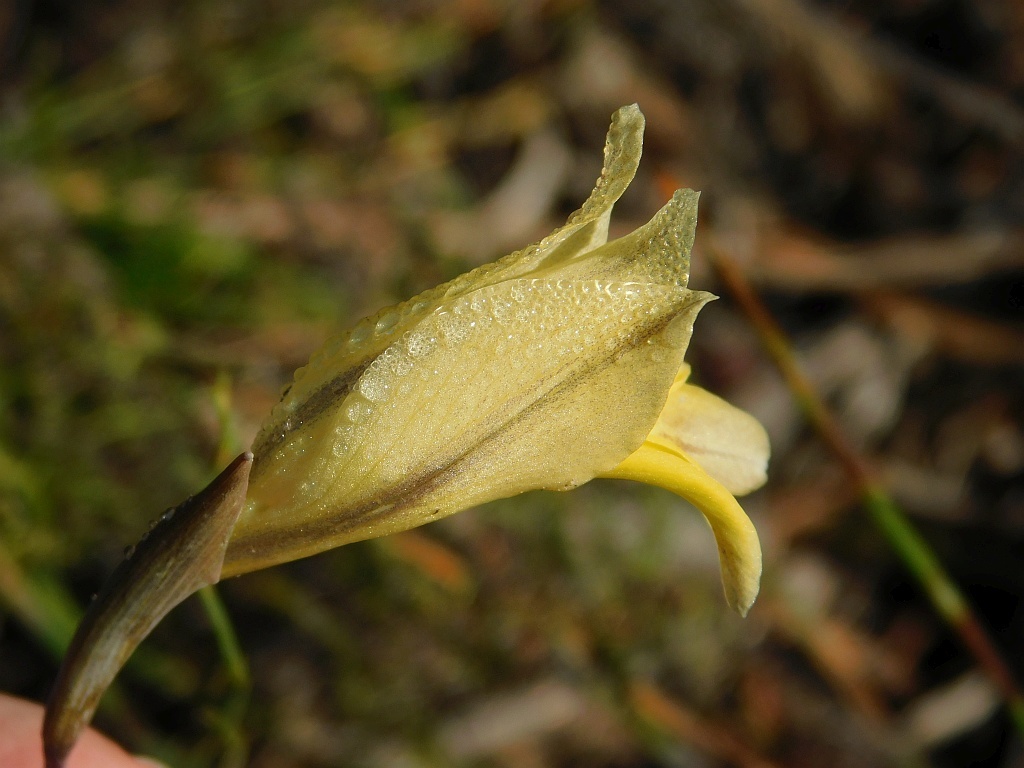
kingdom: Plantae
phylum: Tracheophyta
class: Liliopsida
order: Asparagales
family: Iridaceae
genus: Gladiolus
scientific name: Gladiolus carinatus
